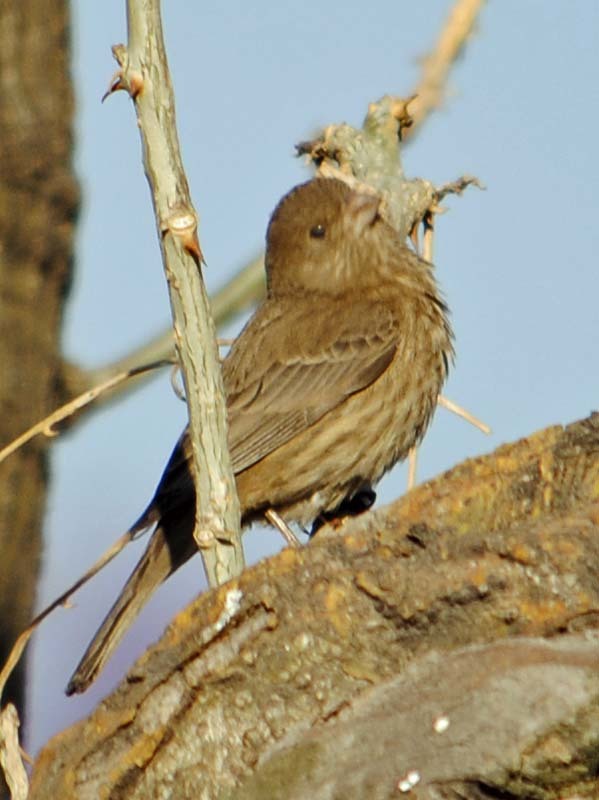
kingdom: Animalia
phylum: Chordata
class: Aves
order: Passeriformes
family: Fringillidae
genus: Haemorhous
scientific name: Haemorhous mexicanus
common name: House finch
